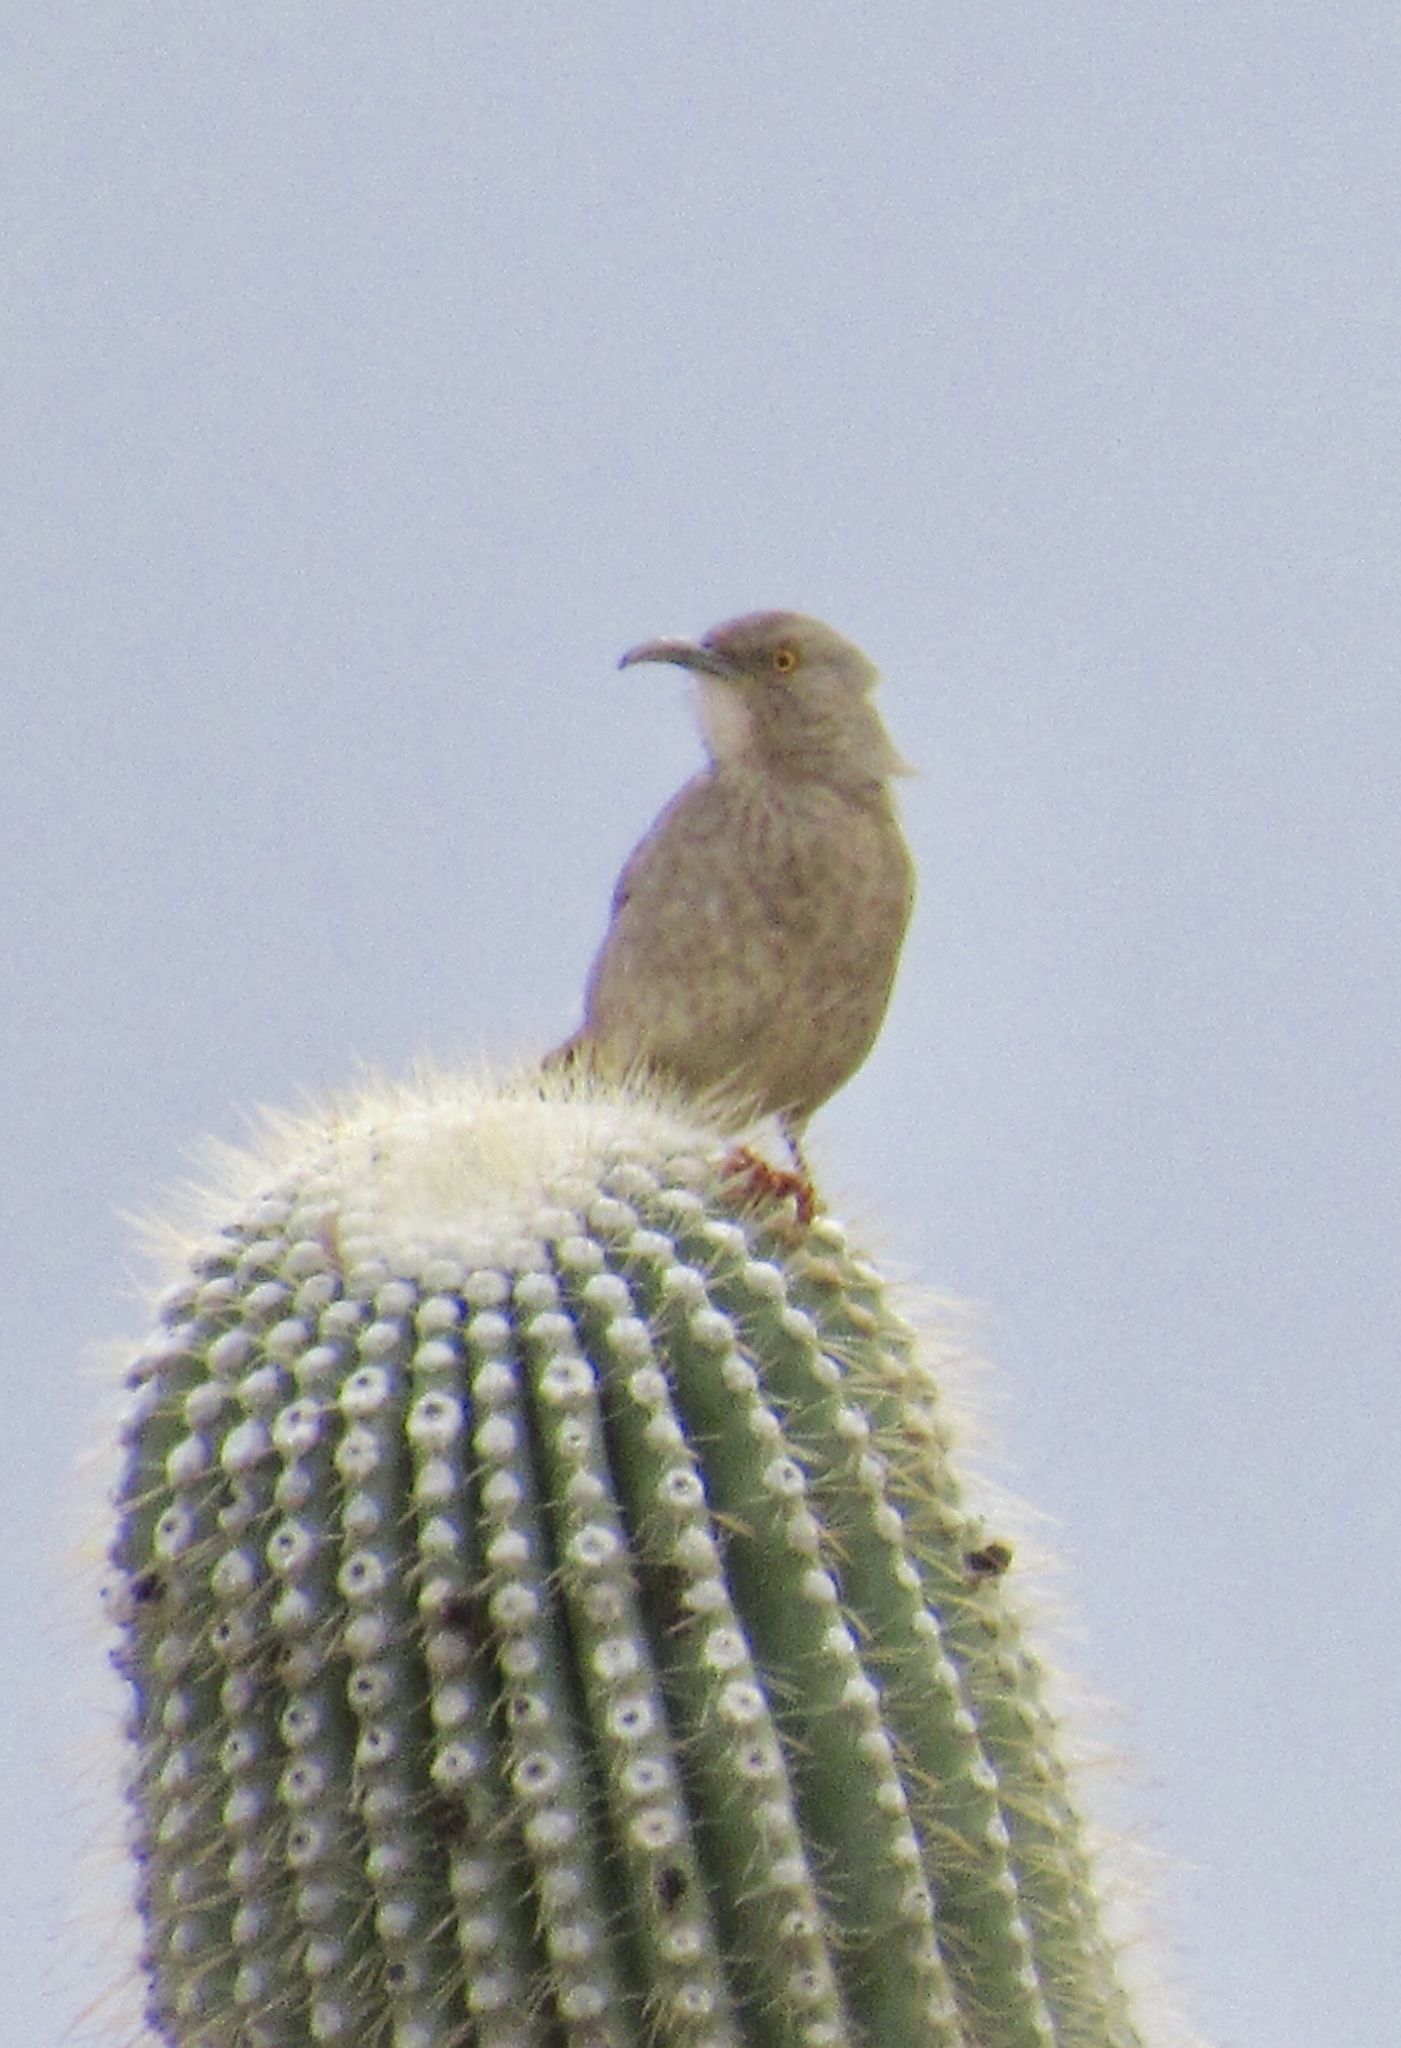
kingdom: Animalia
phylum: Chordata
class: Aves
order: Passeriformes
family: Mimidae
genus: Toxostoma
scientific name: Toxostoma curvirostre
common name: Curve-billed thrasher
